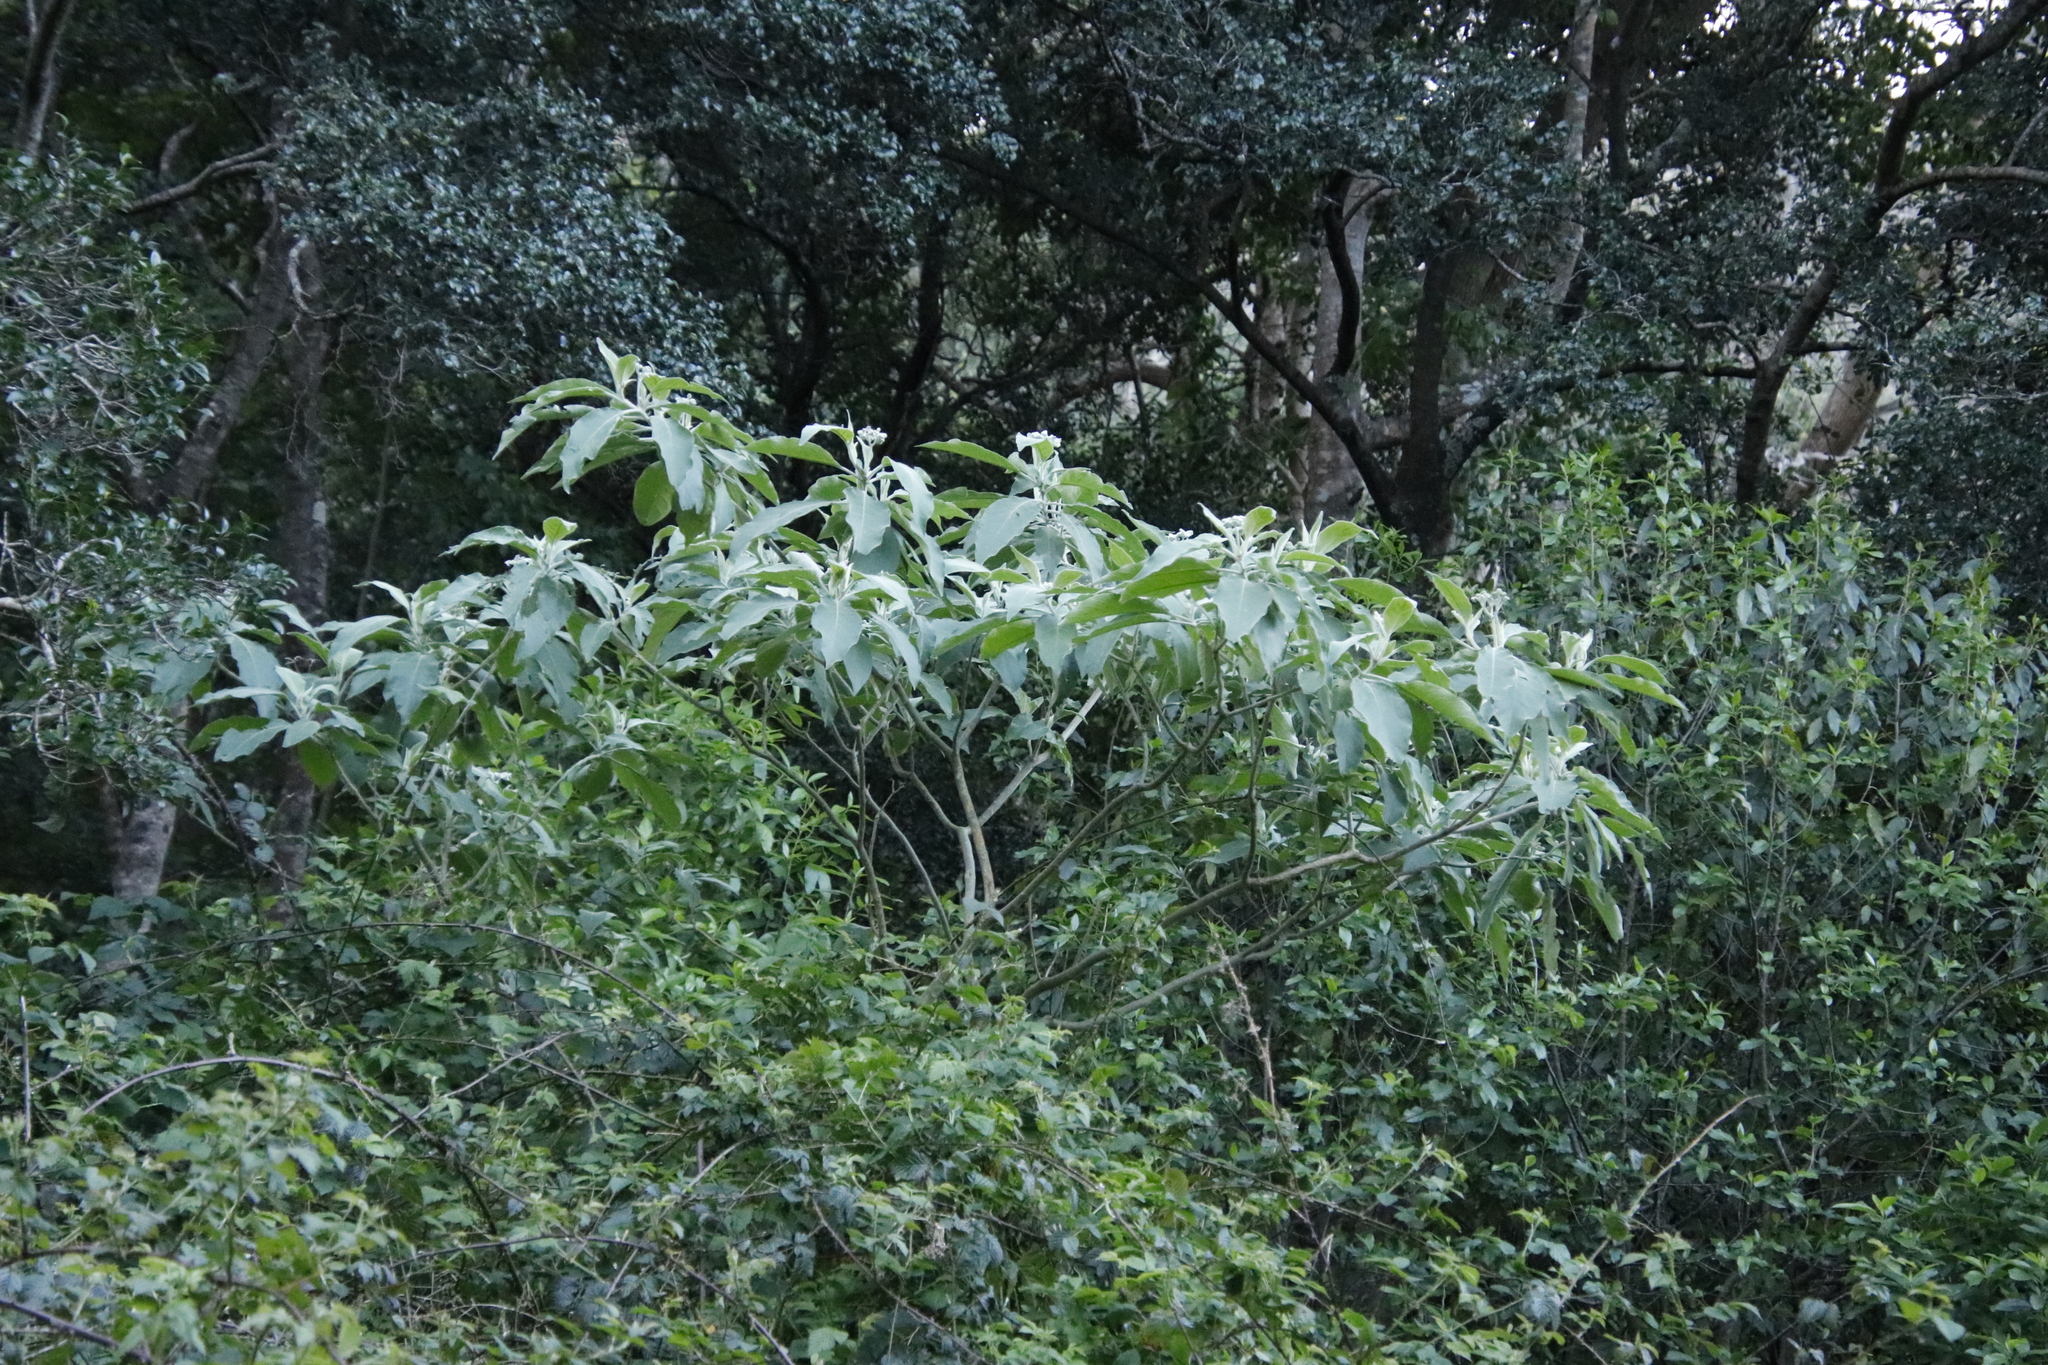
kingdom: Plantae
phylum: Tracheophyta
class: Magnoliopsida
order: Solanales
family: Solanaceae
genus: Solanum
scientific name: Solanum mauritianum
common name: Earleaf nightshade
